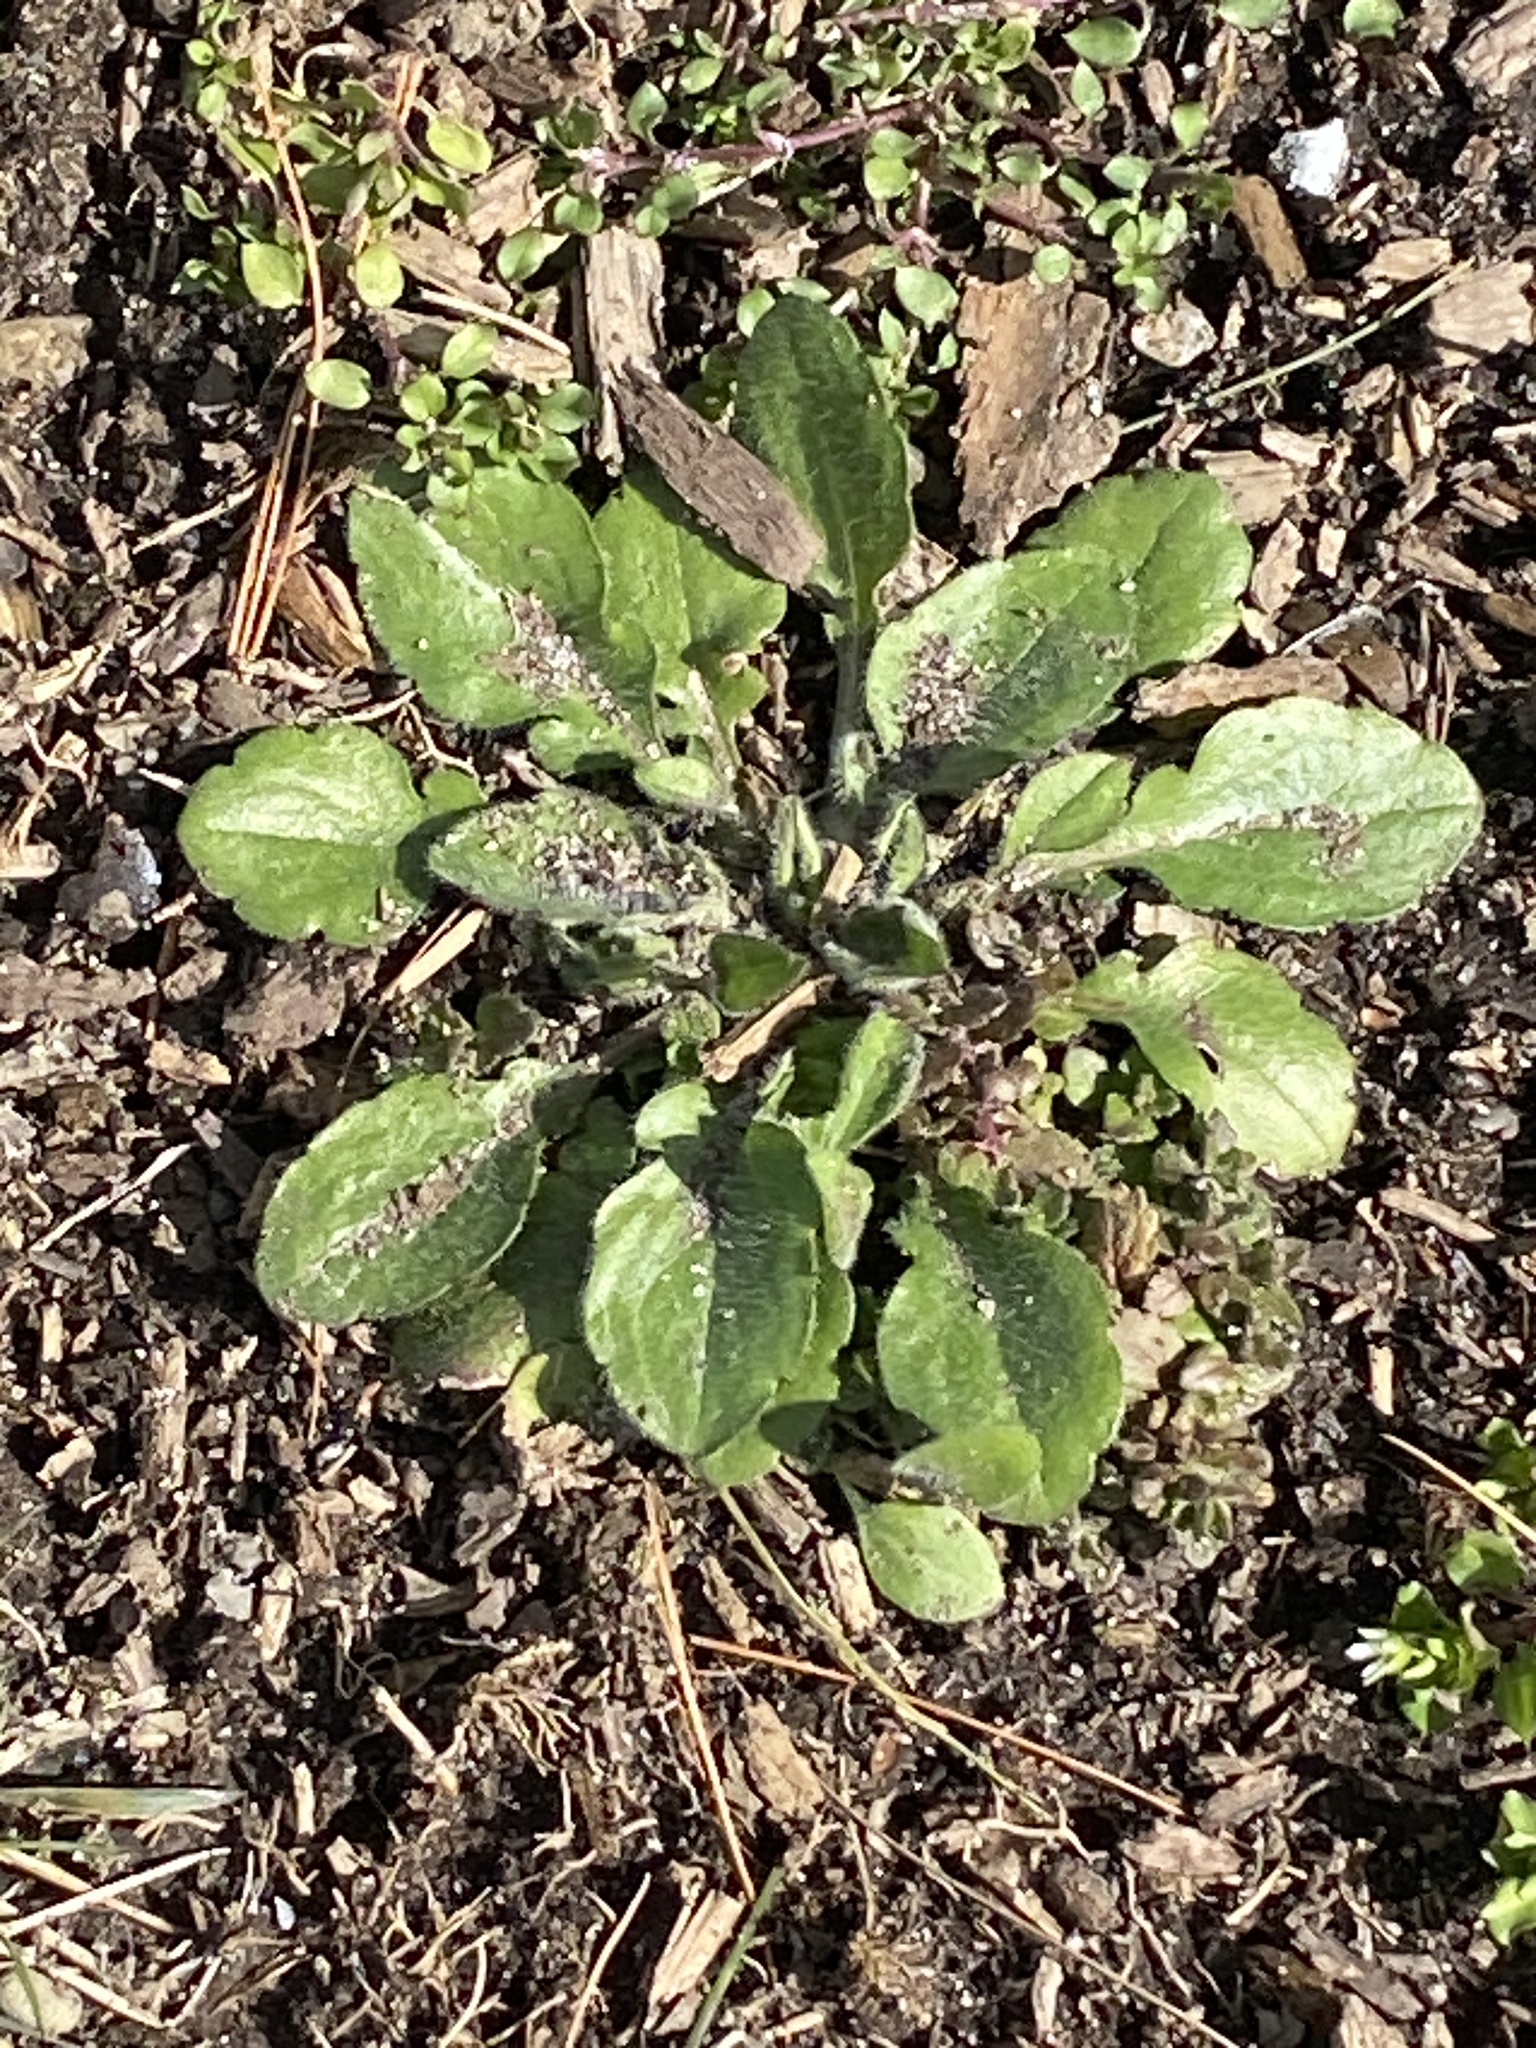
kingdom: Plantae
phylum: Tracheophyta
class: Magnoliopsida
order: Asterales
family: Asteraceae
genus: Erigeron
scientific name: Erigeron annuus
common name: Tall fleabane
